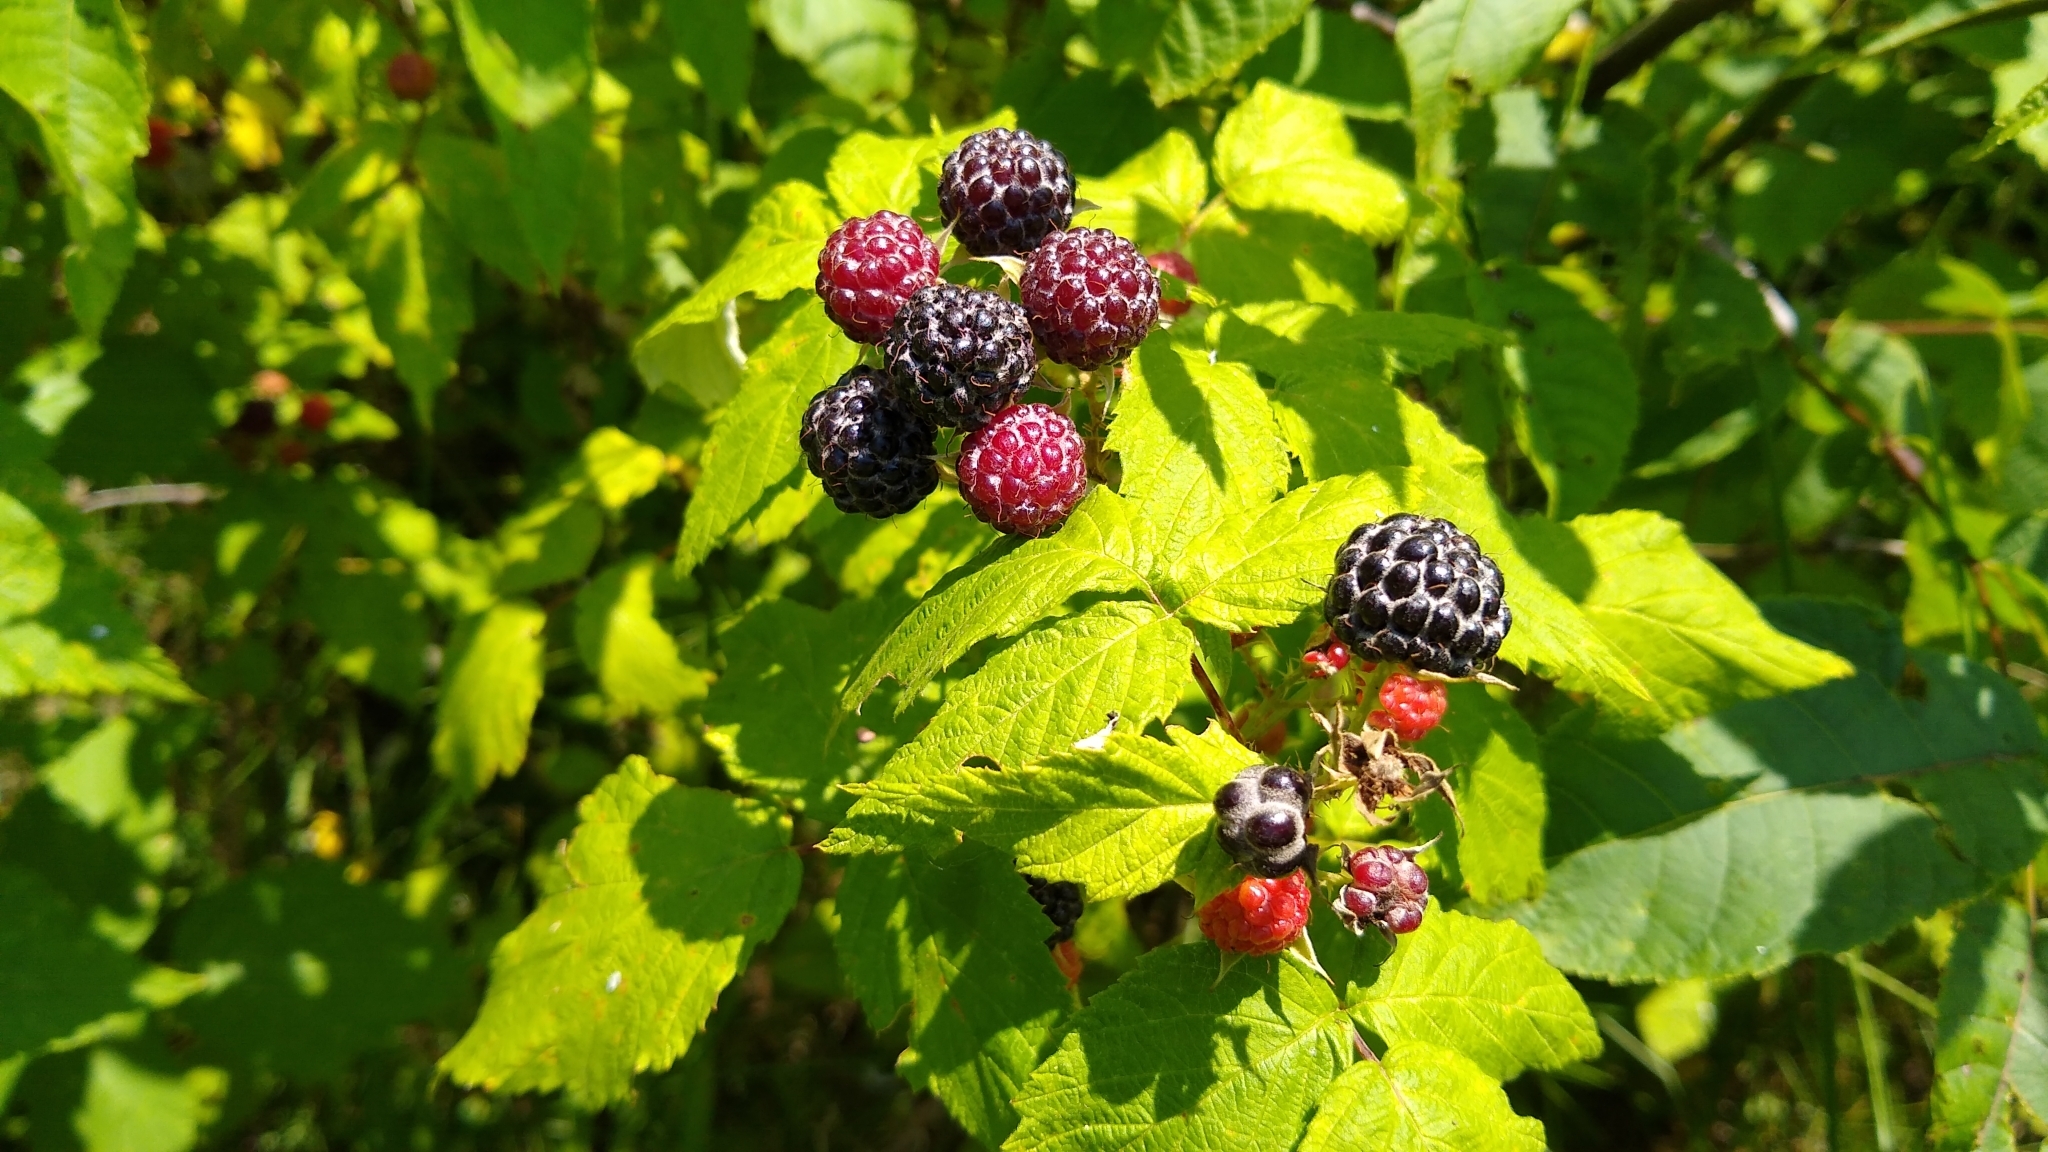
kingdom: Plantae
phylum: Tracheophyta
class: Magnoliopsida
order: Rosales
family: Rosaceae
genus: Rubus
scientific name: Rubus occidentalis
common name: Black raspberry
